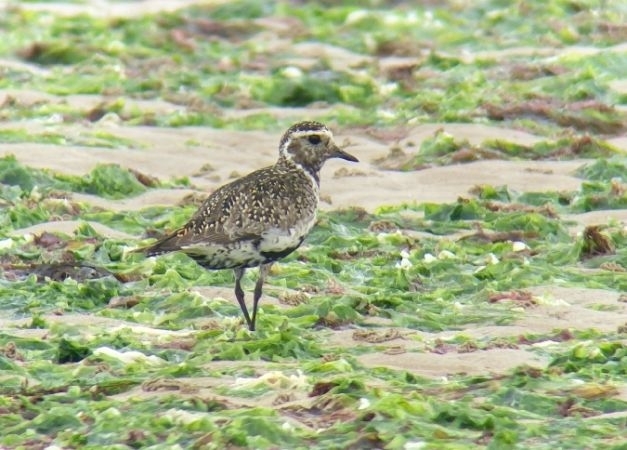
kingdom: Animalia
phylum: Chordata
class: Aves
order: Charadriiformes
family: Charadriidae
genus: Pluvialis
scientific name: Pluvialis apricaria
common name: European golden plover
